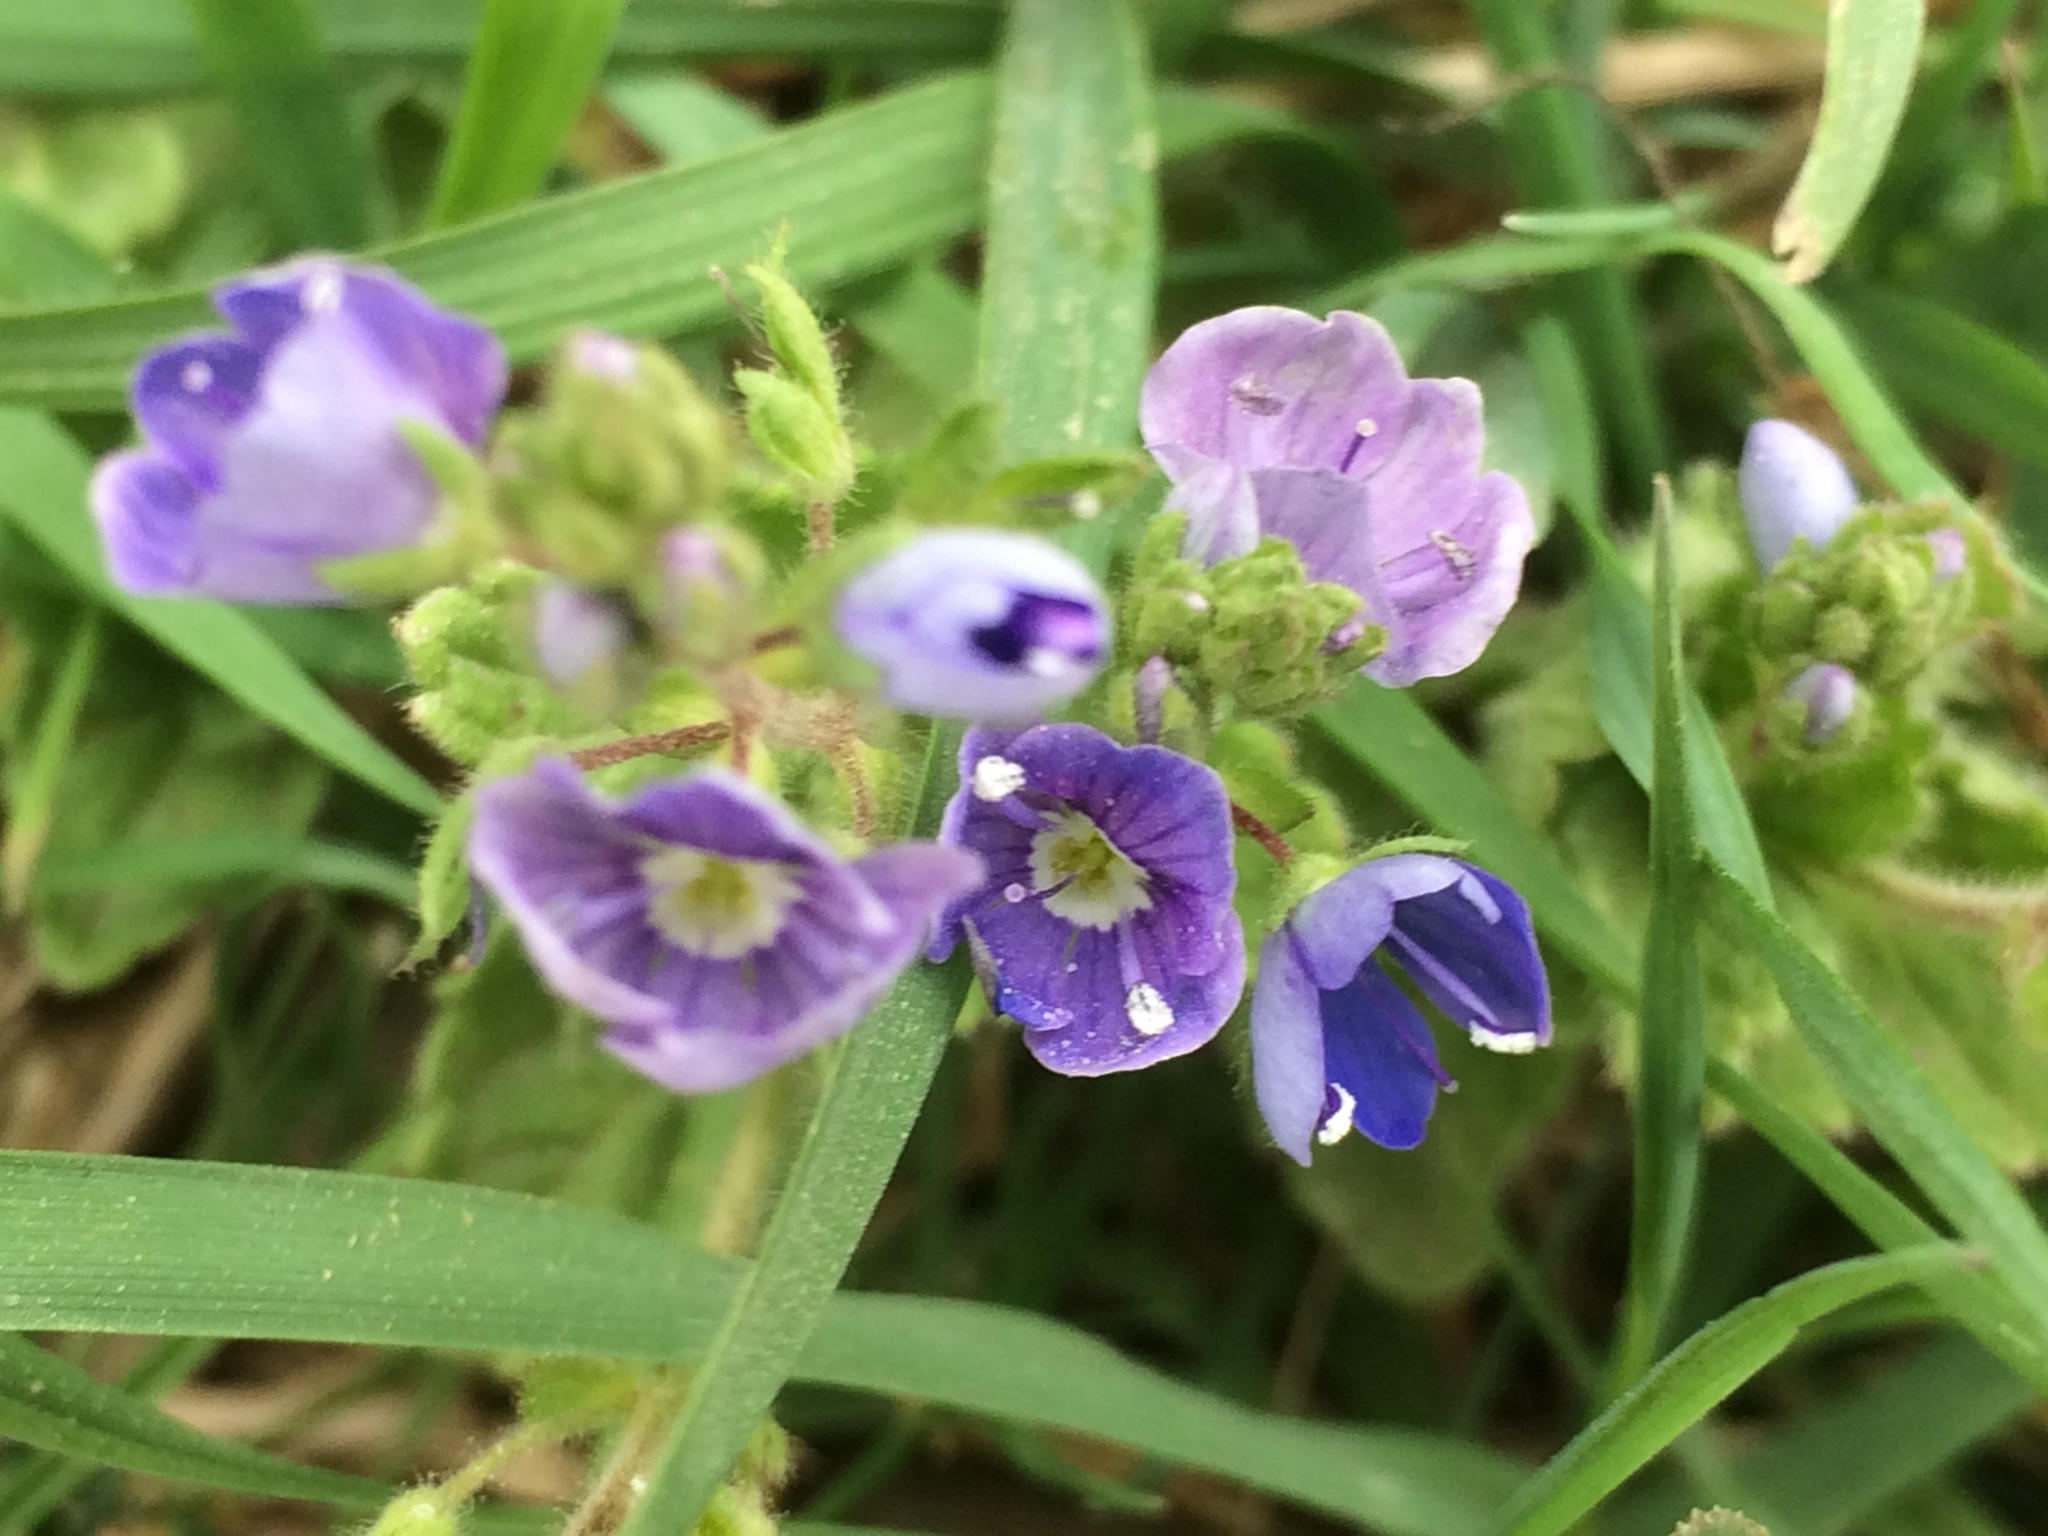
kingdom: Plantae
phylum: Tracheophyta
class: Magnoliopsida
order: Lamiales
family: Plantaginaceae
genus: Veronica
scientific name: Veronica chamaedrys
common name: Germander speedwell
